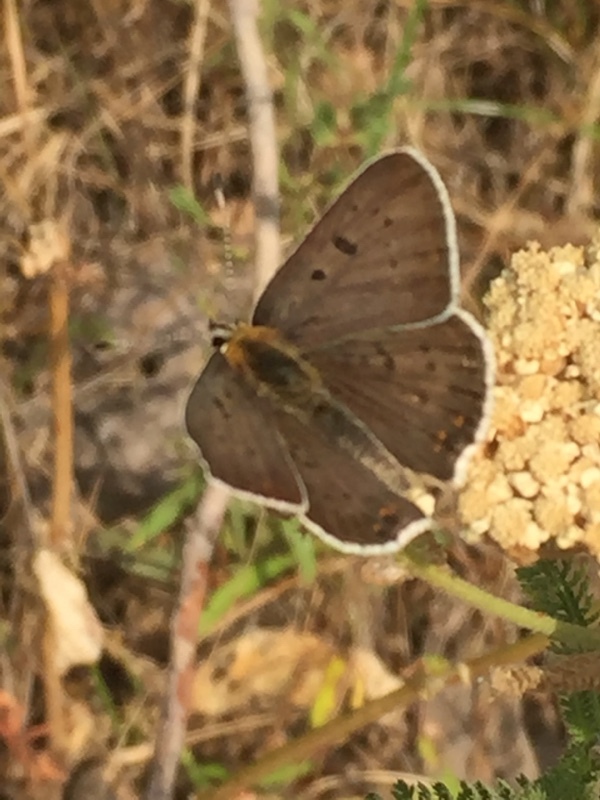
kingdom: Animalia
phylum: Arthropoda
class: Insecta
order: Lepidoptera
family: Lycaenidae
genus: Loweia
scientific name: Loweia tityrus
